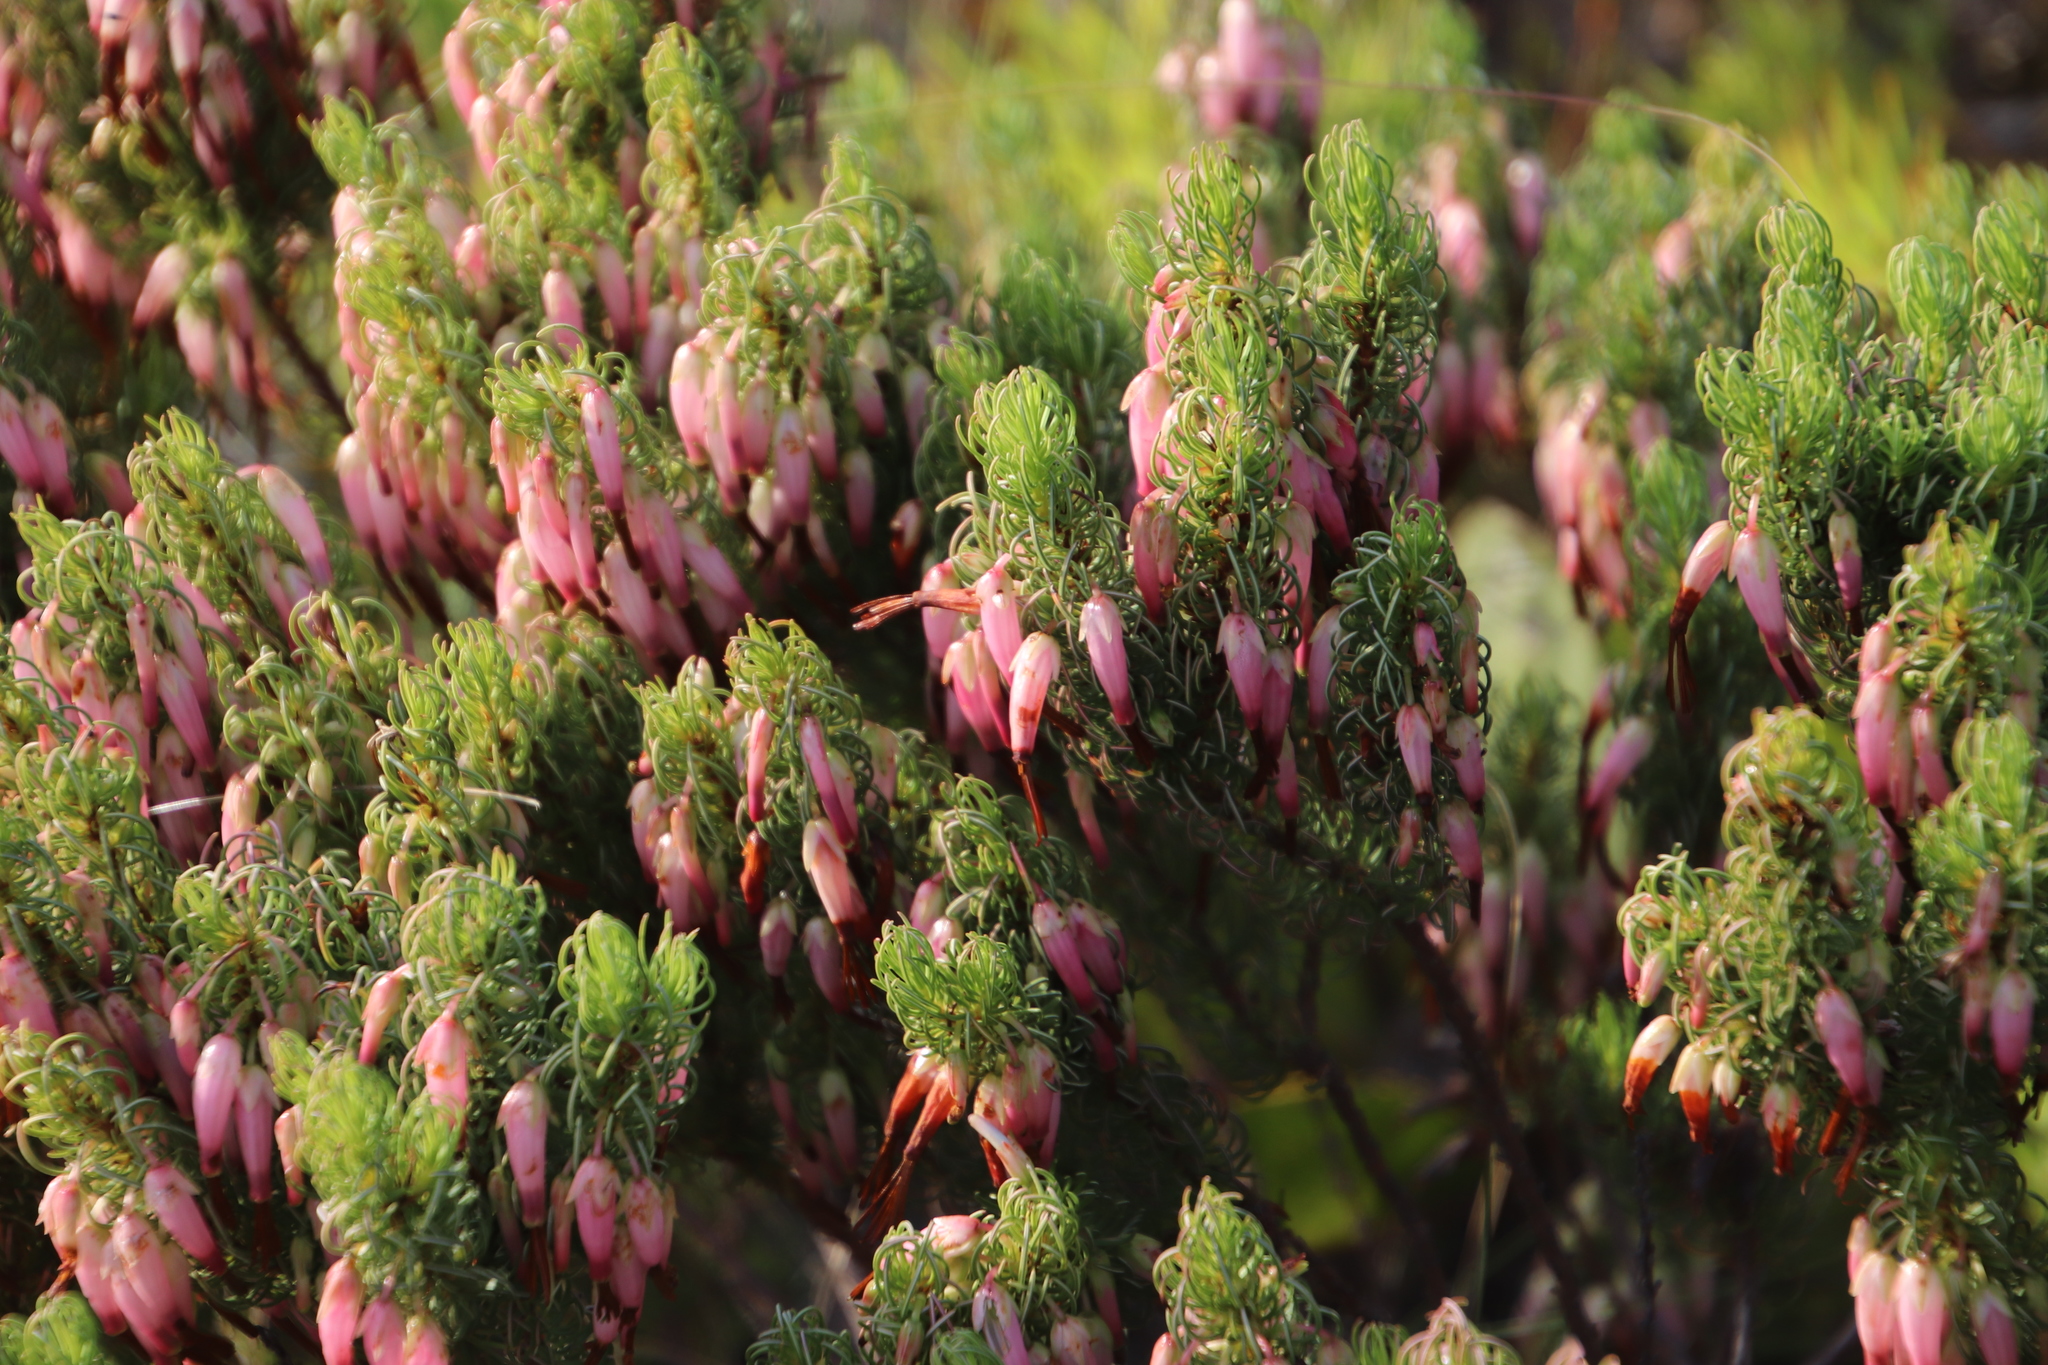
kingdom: Plantae
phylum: Tracheophyta
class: Magnoliopsida
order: Ericales
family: Ericaceae
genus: Erica
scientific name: Erica plukenetii
